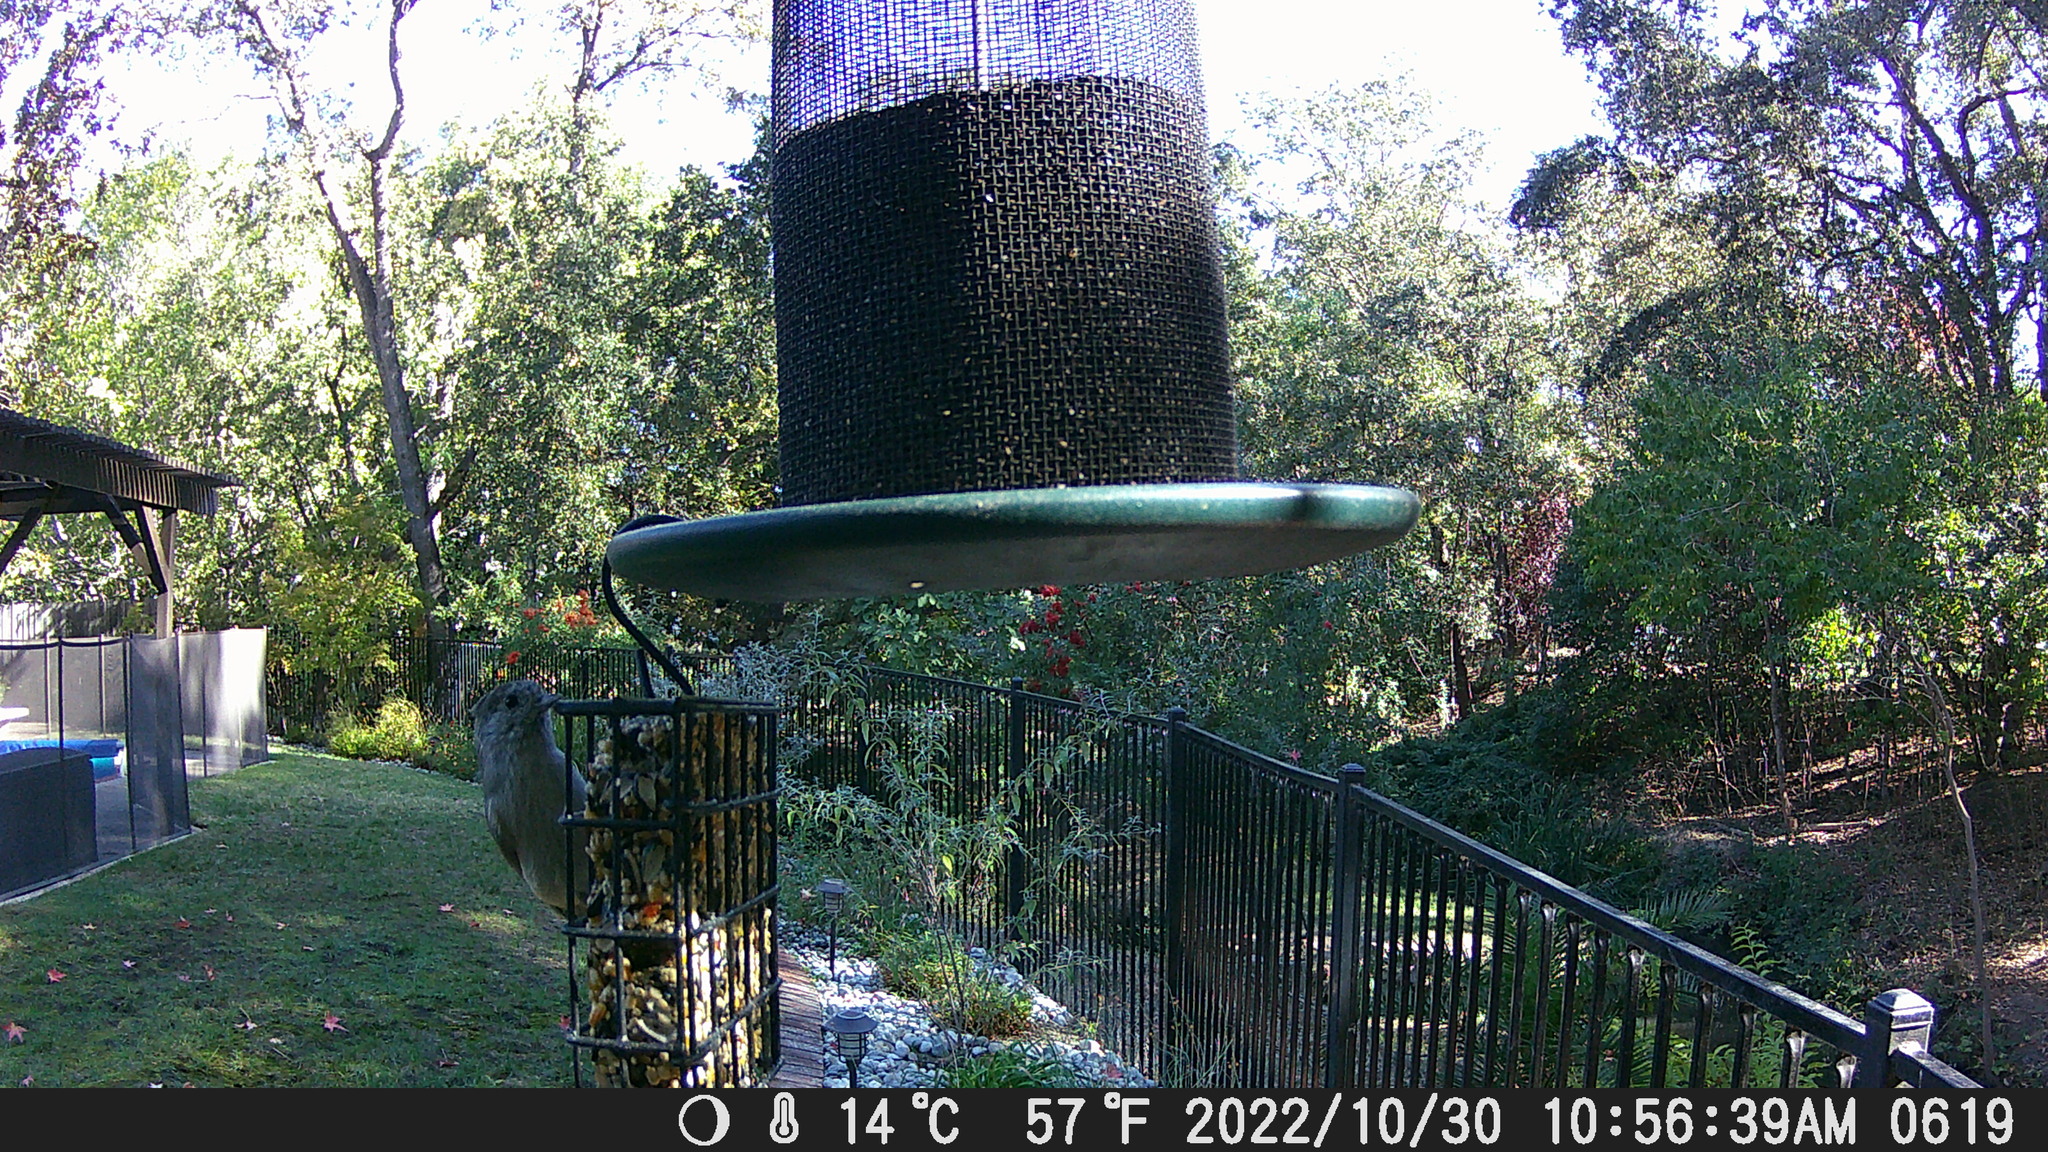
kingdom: Animalia
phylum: Chordata
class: Aves
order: Passeriformes
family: Paridae
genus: Baeolophus
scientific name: Baeolophus inornatus
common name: Oak titmouse
